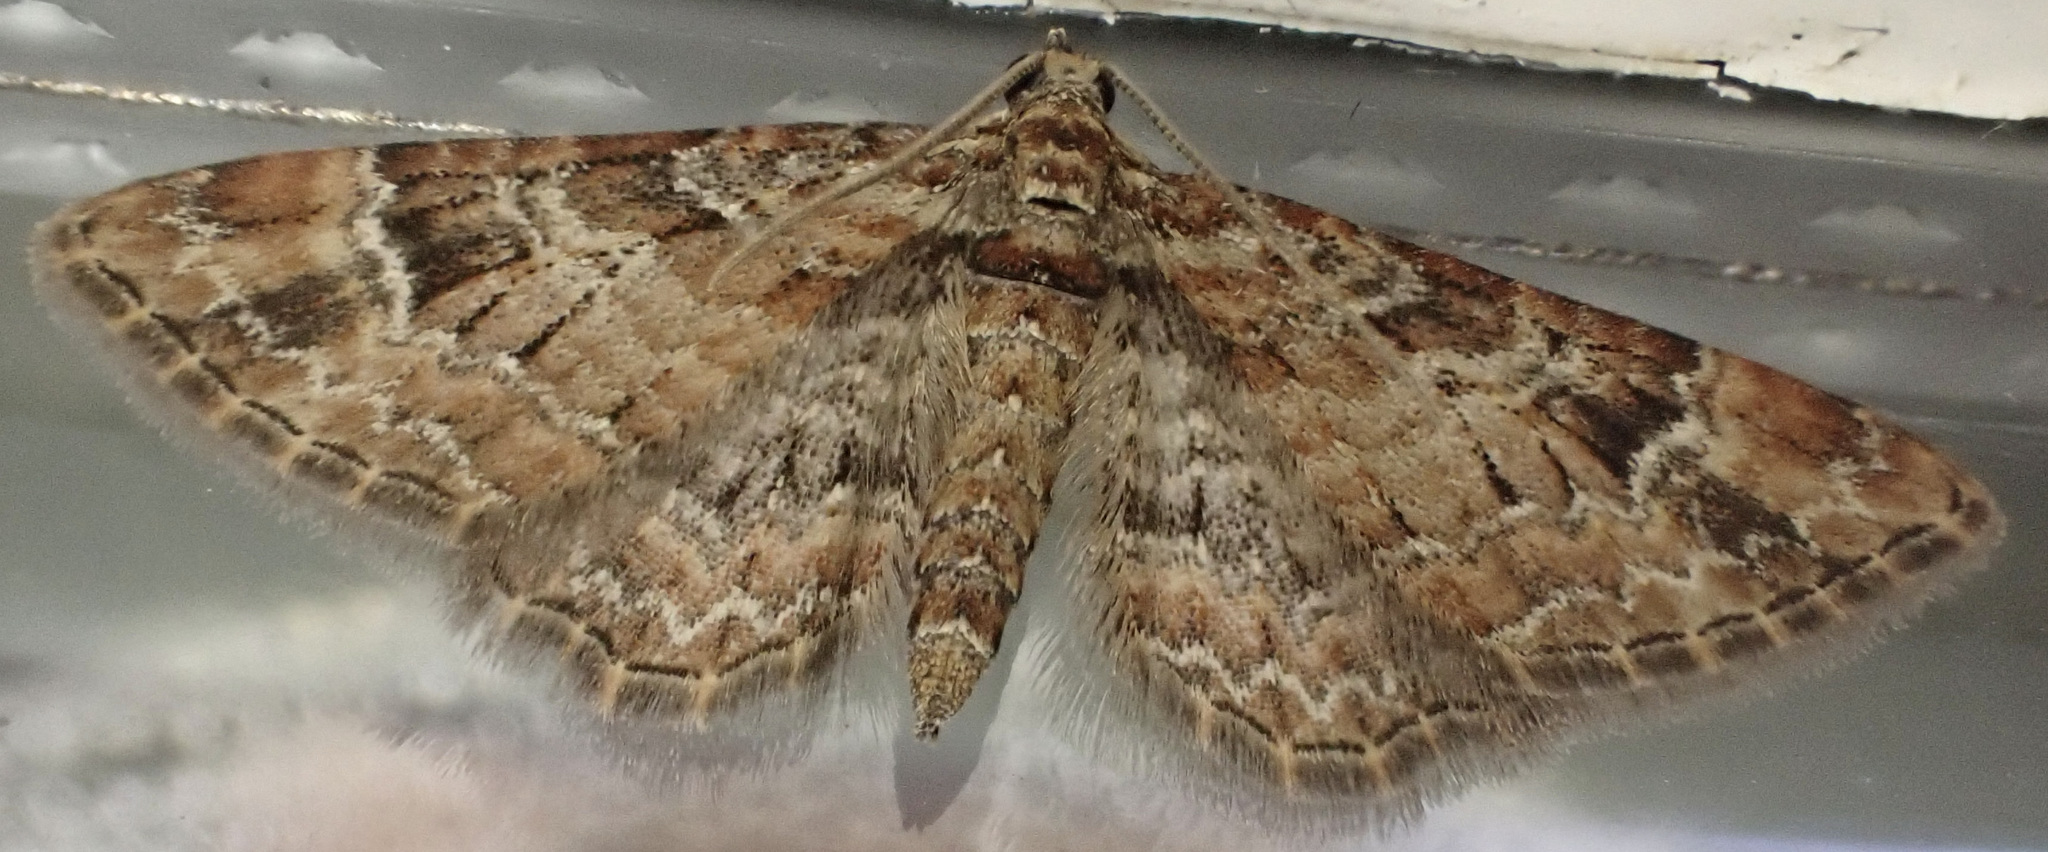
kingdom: Animalia
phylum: Arthropoda
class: Insecta
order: Lepidoptera
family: Geometridae
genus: Gymnoscelis
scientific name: Gymnoscelis rufifasciata
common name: Double-striped pug
